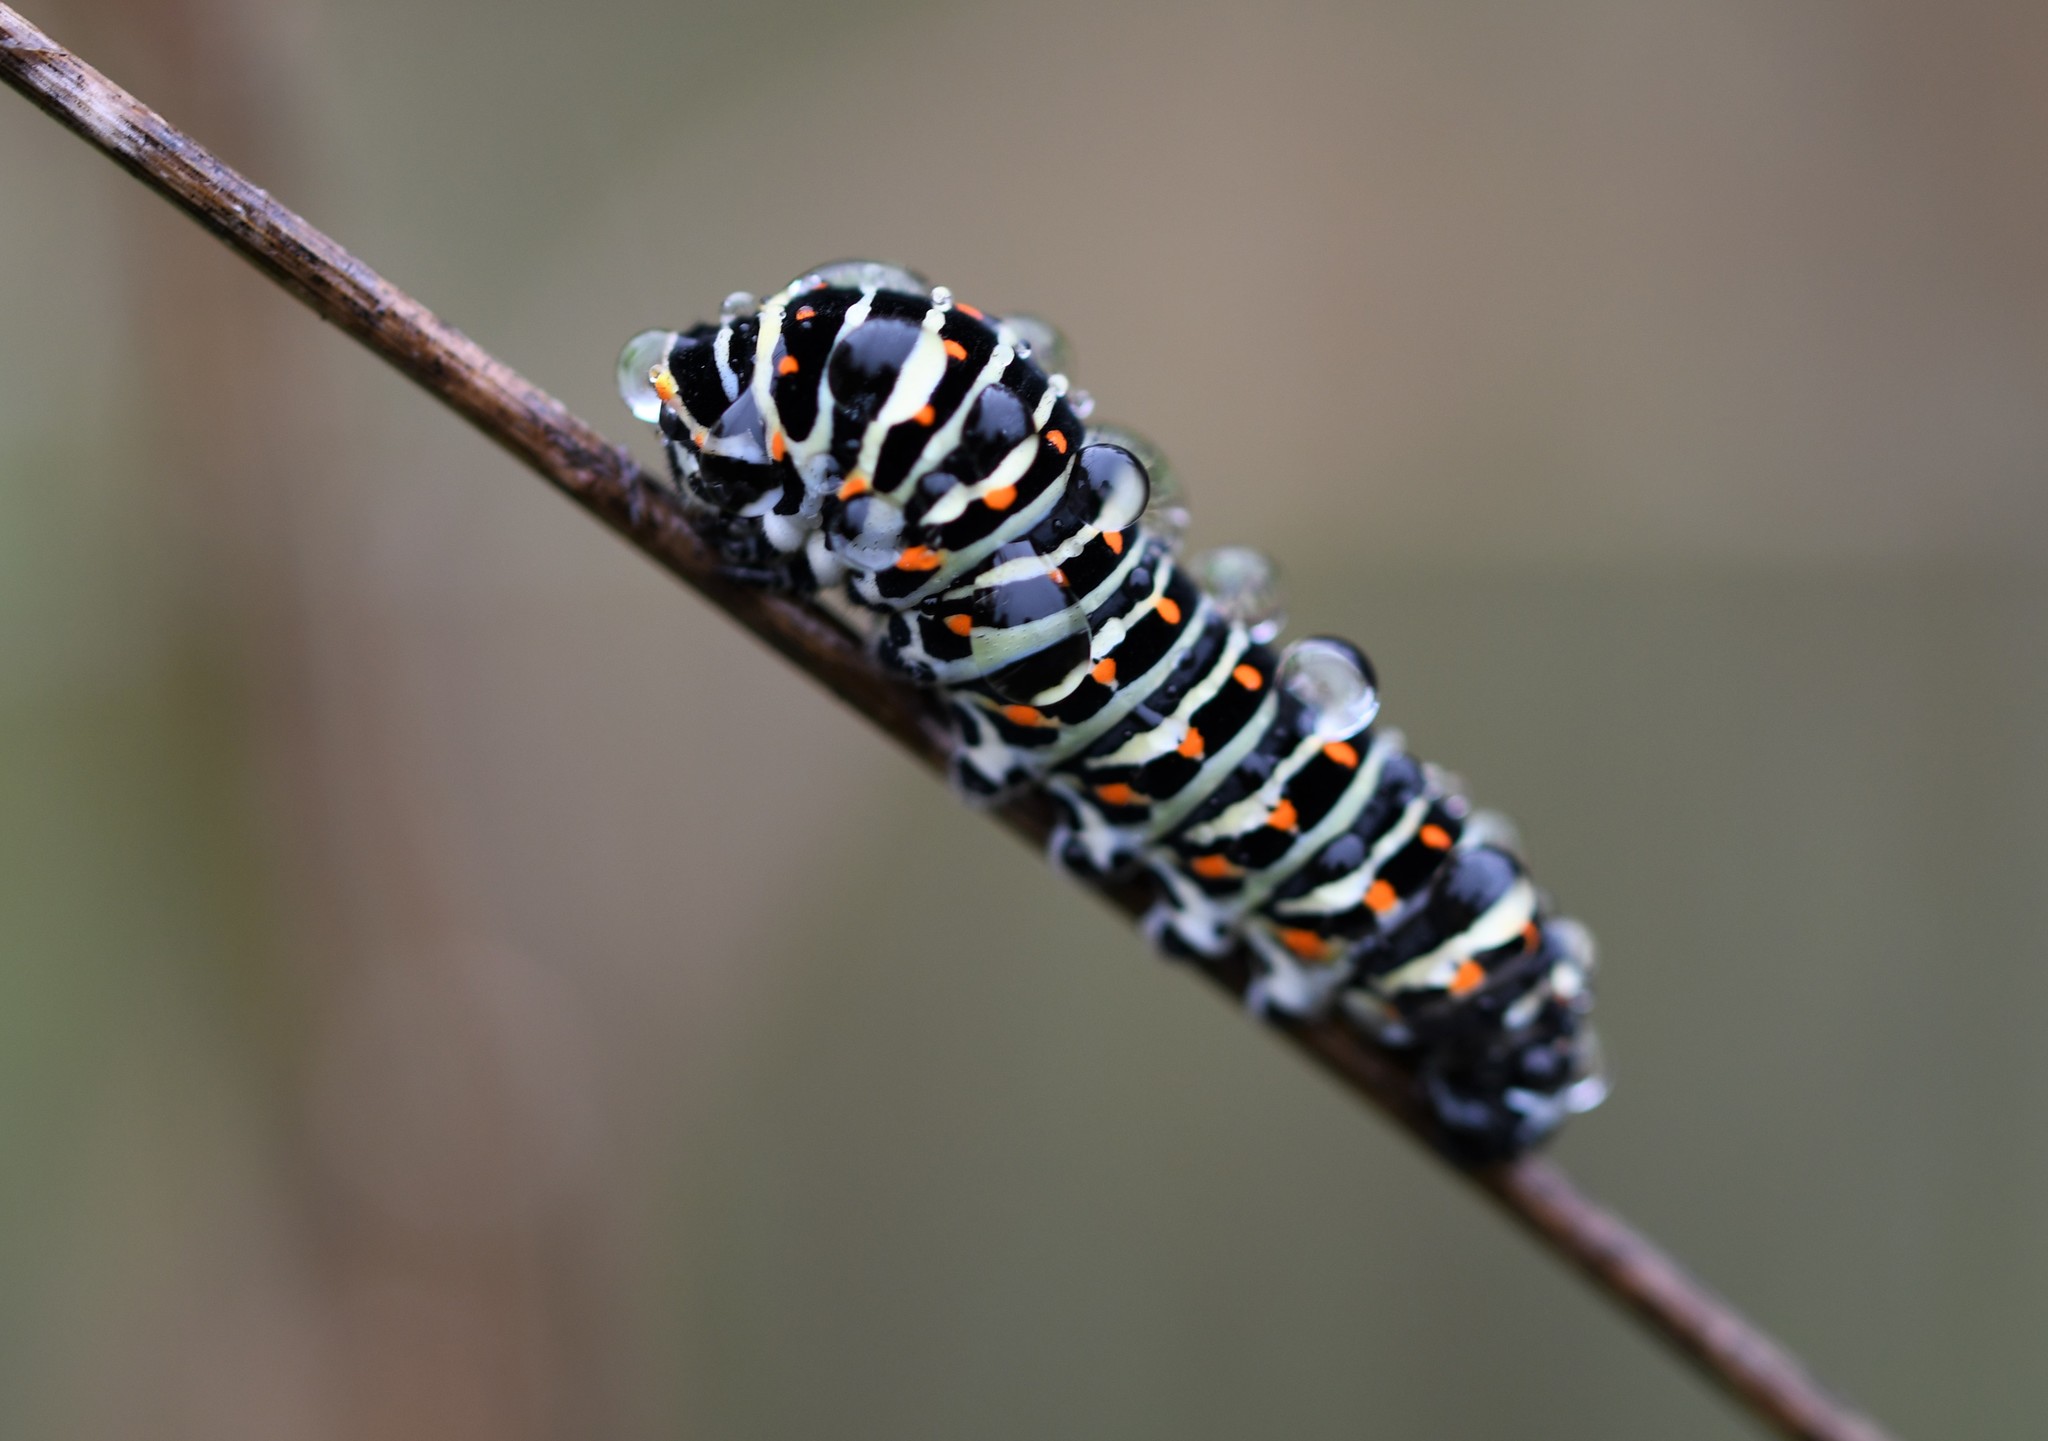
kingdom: Animalia
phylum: Arthropoda
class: Insecta
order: Lepidoptera
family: Papilionidae
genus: Papilio
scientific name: Papilio machaon
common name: Swallowtail
